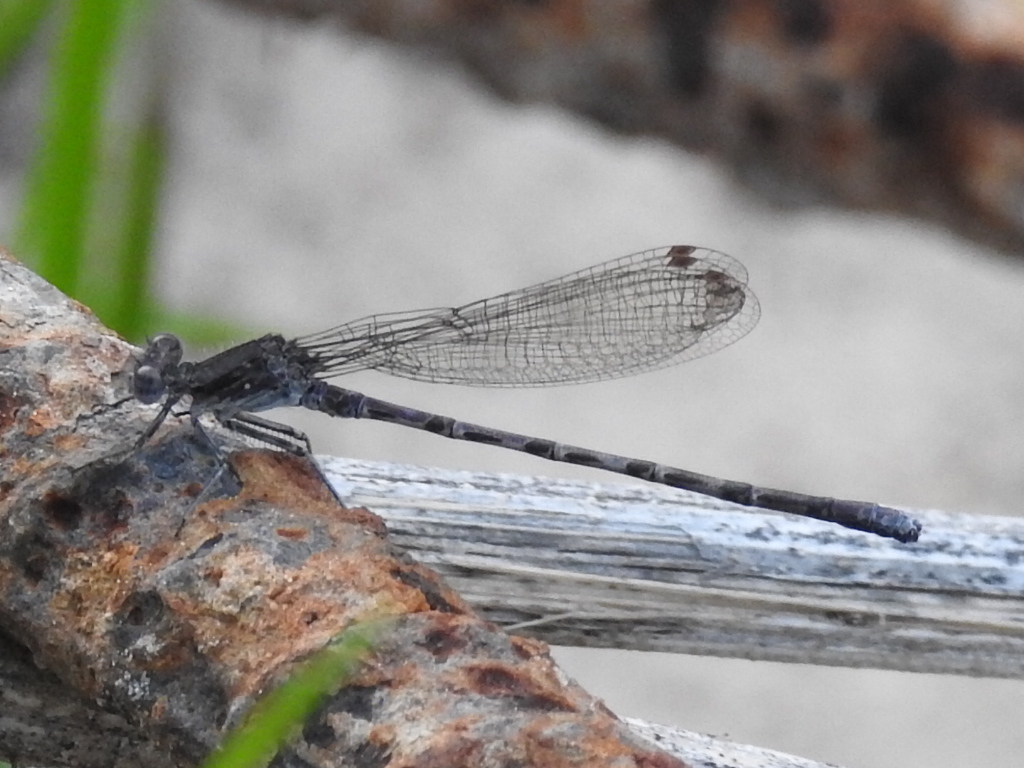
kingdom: Animalia
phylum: Arthropoda
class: Insecta
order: Odonata
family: Coenagrionidae
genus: Argia
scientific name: Argia immunda
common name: Kiowa dancer
